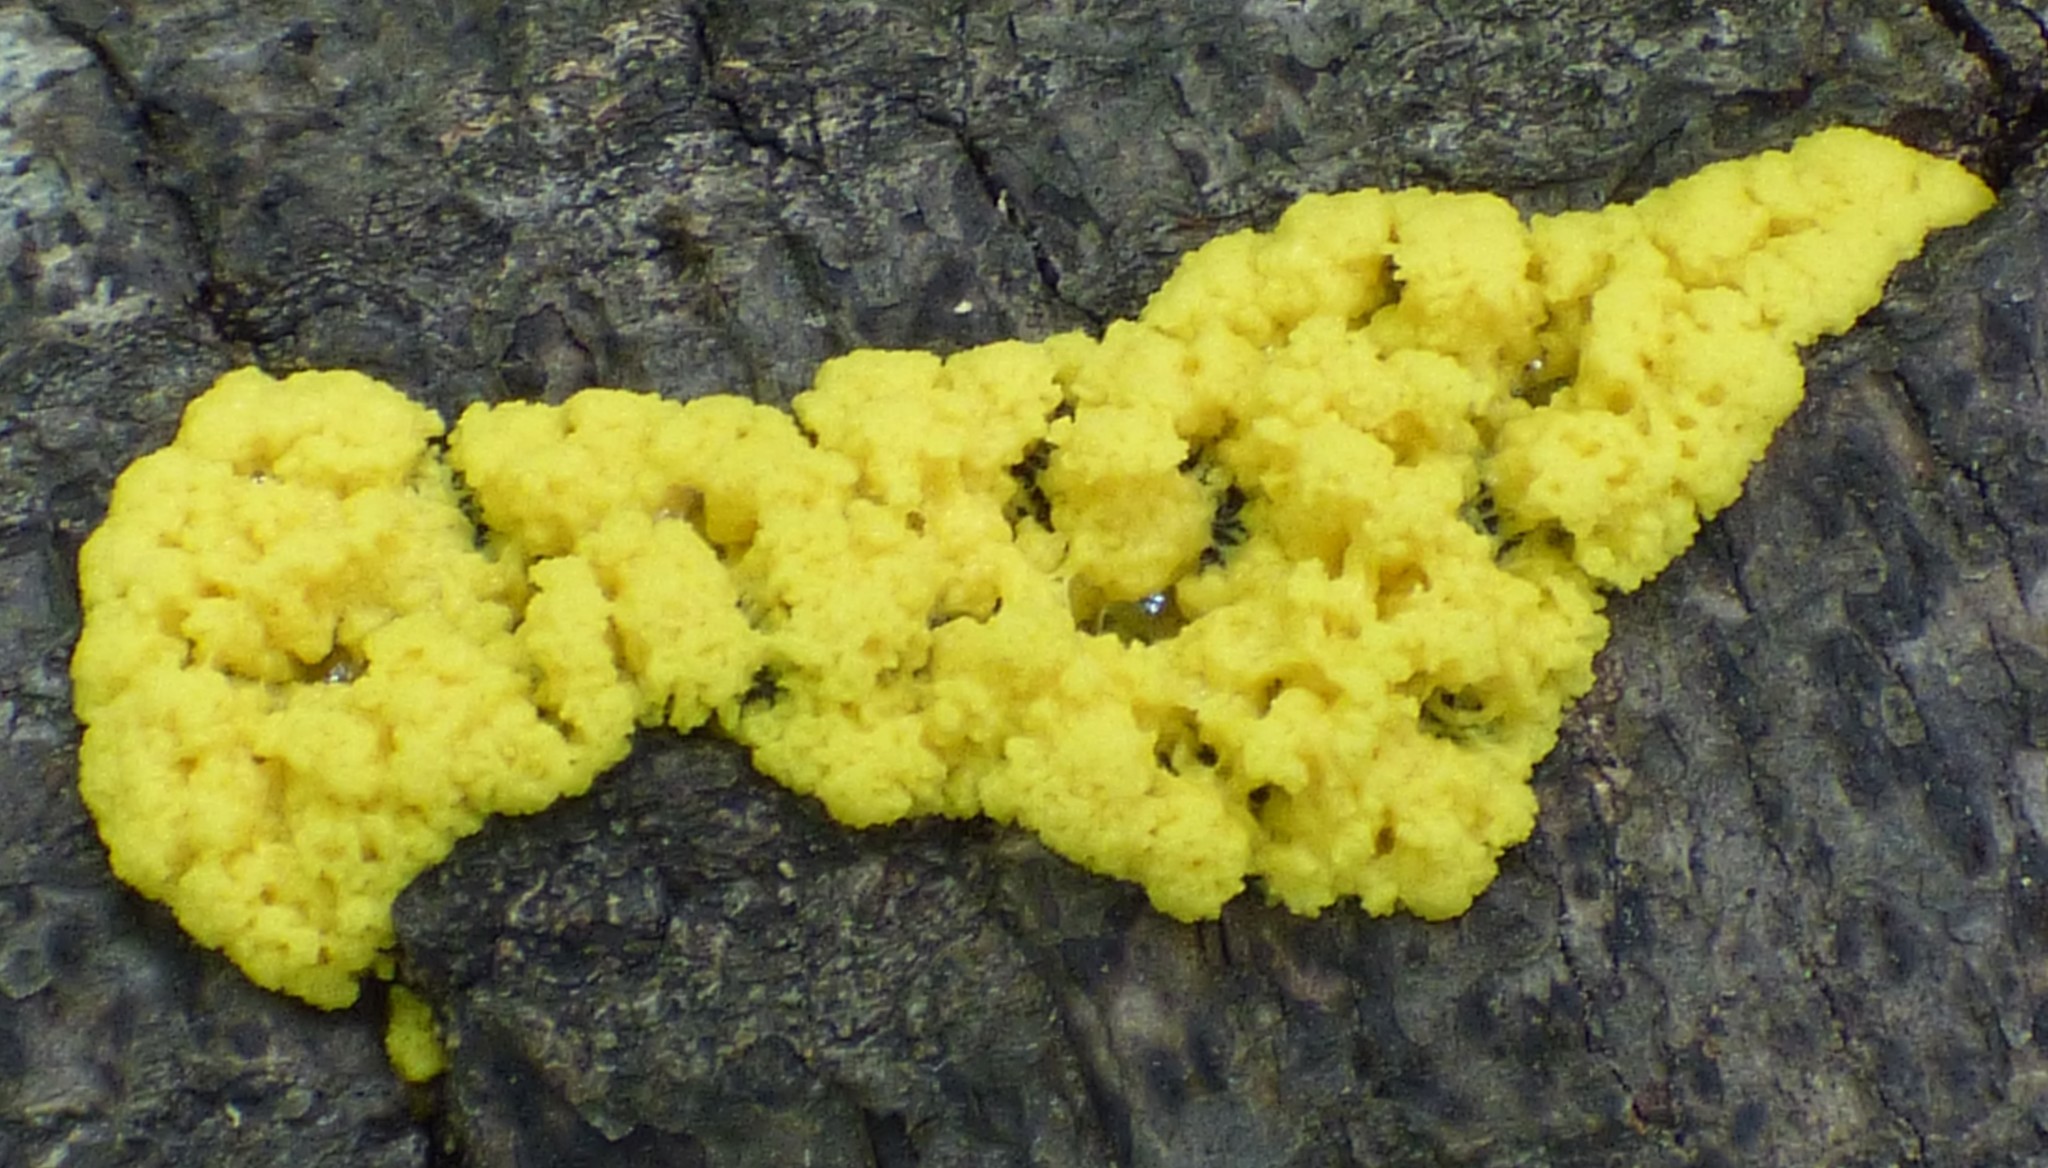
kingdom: Protozoa
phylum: Mycetozoa
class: Myxomycetes
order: Physarales
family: Physaraceae
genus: Fuligo
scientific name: Fuligo septica
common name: Dog vomit slime mold
